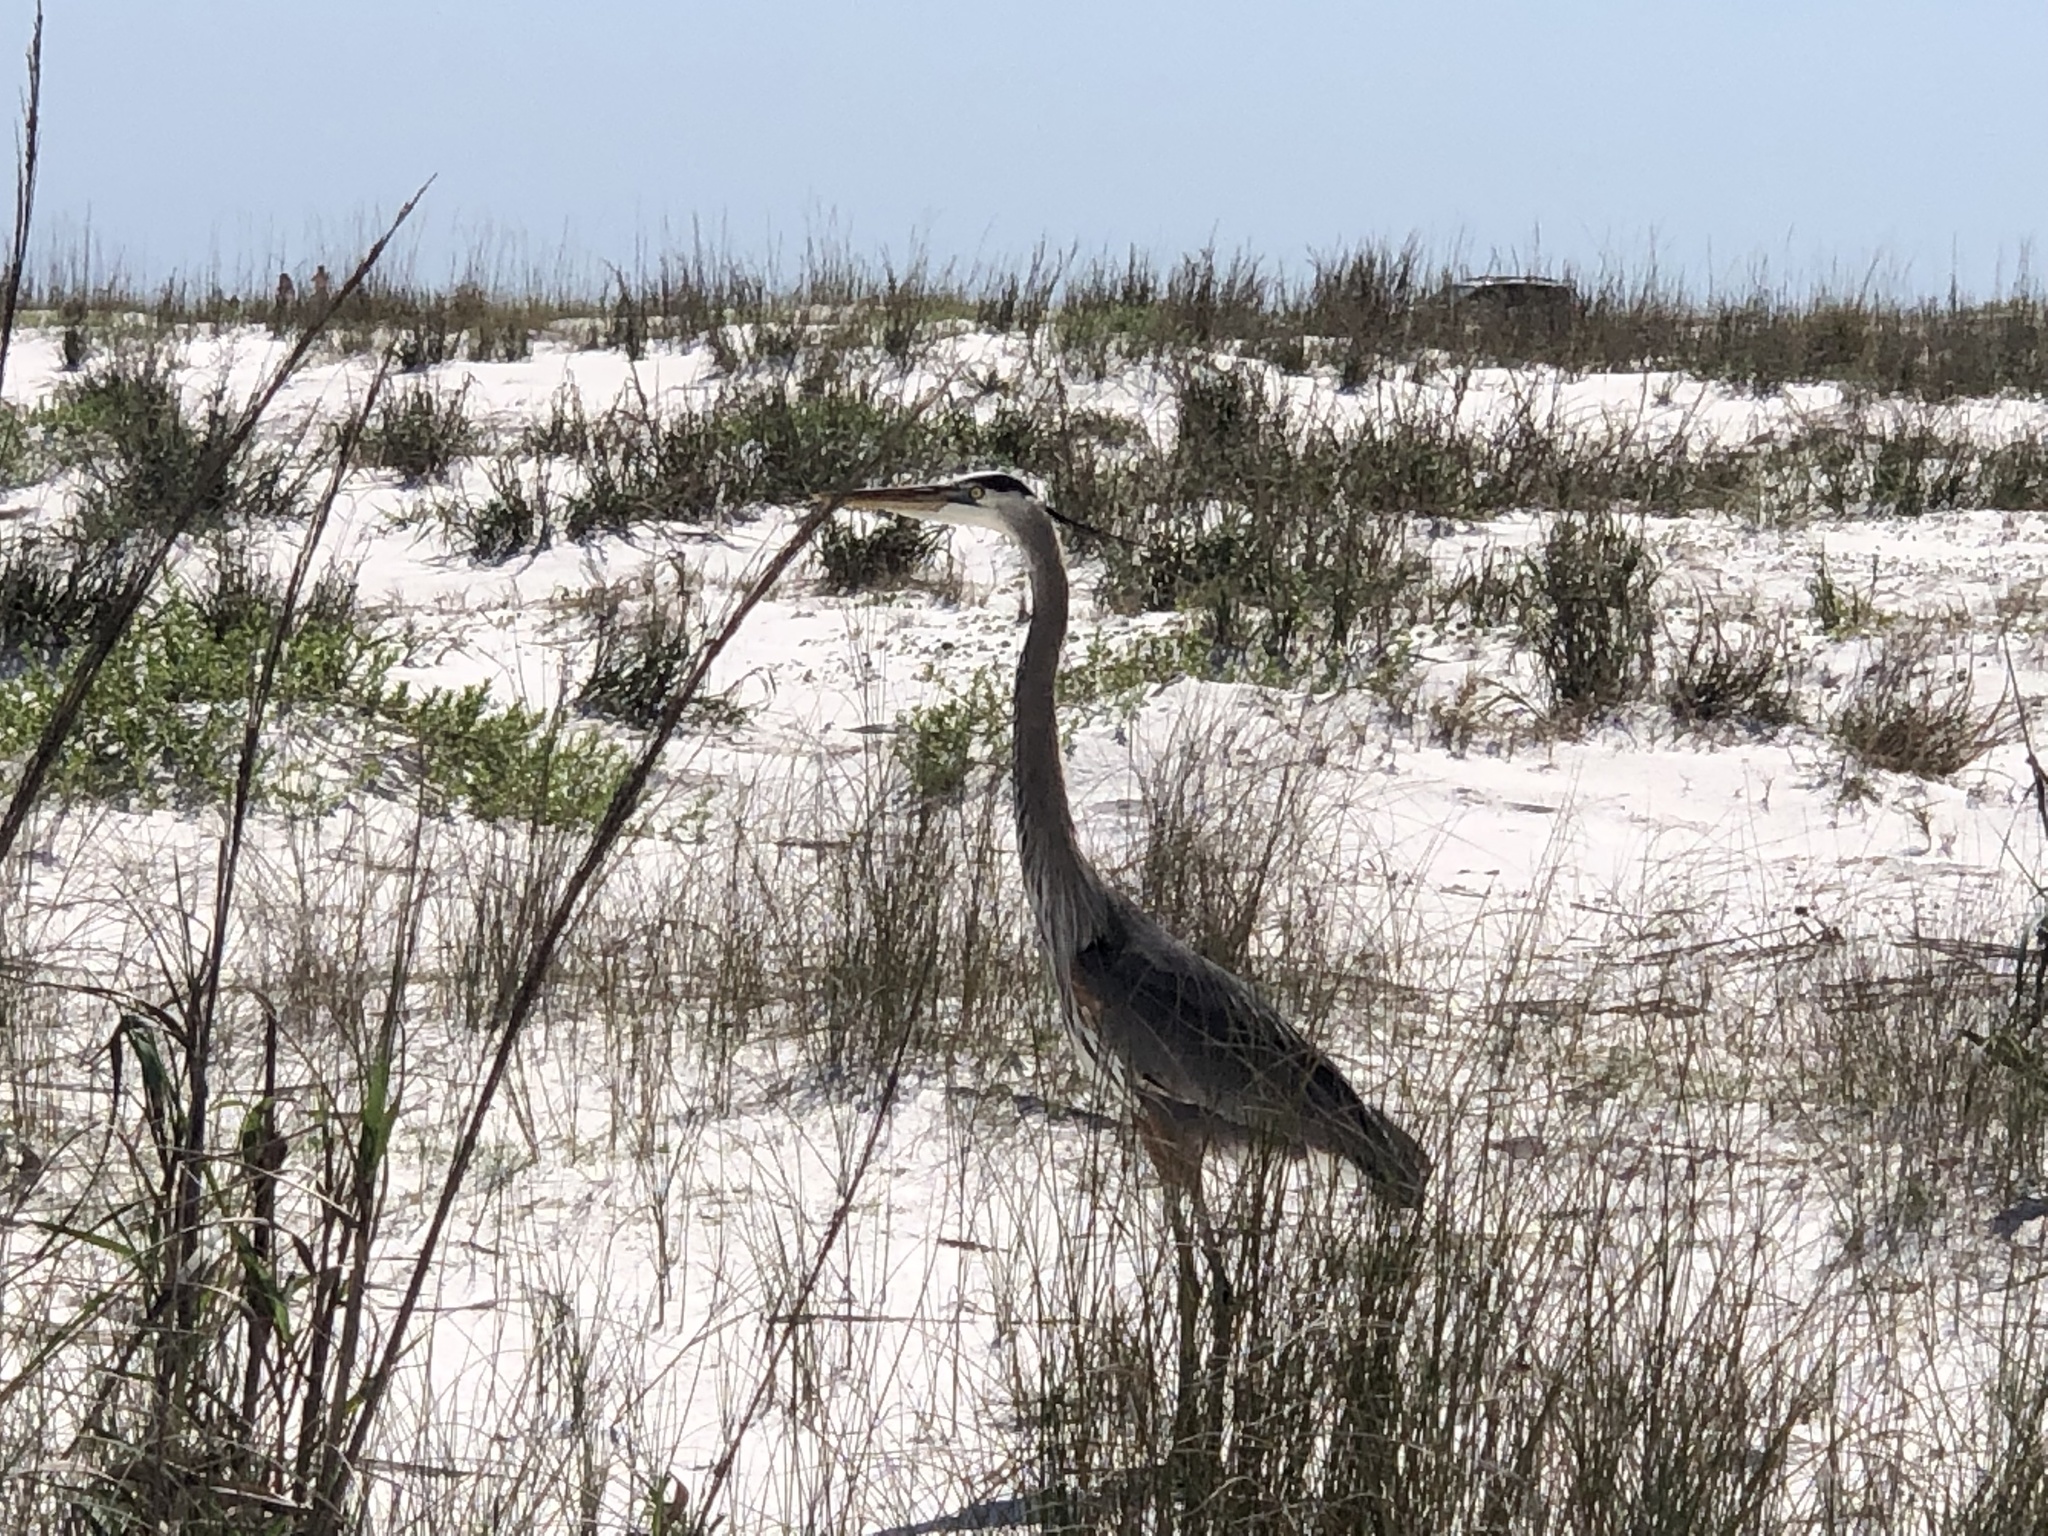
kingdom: Animalia
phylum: Chordata
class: Aves
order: Pelecaniformes
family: Ardeidae
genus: Ardea
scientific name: Ardea herodias
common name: Great blue heron
